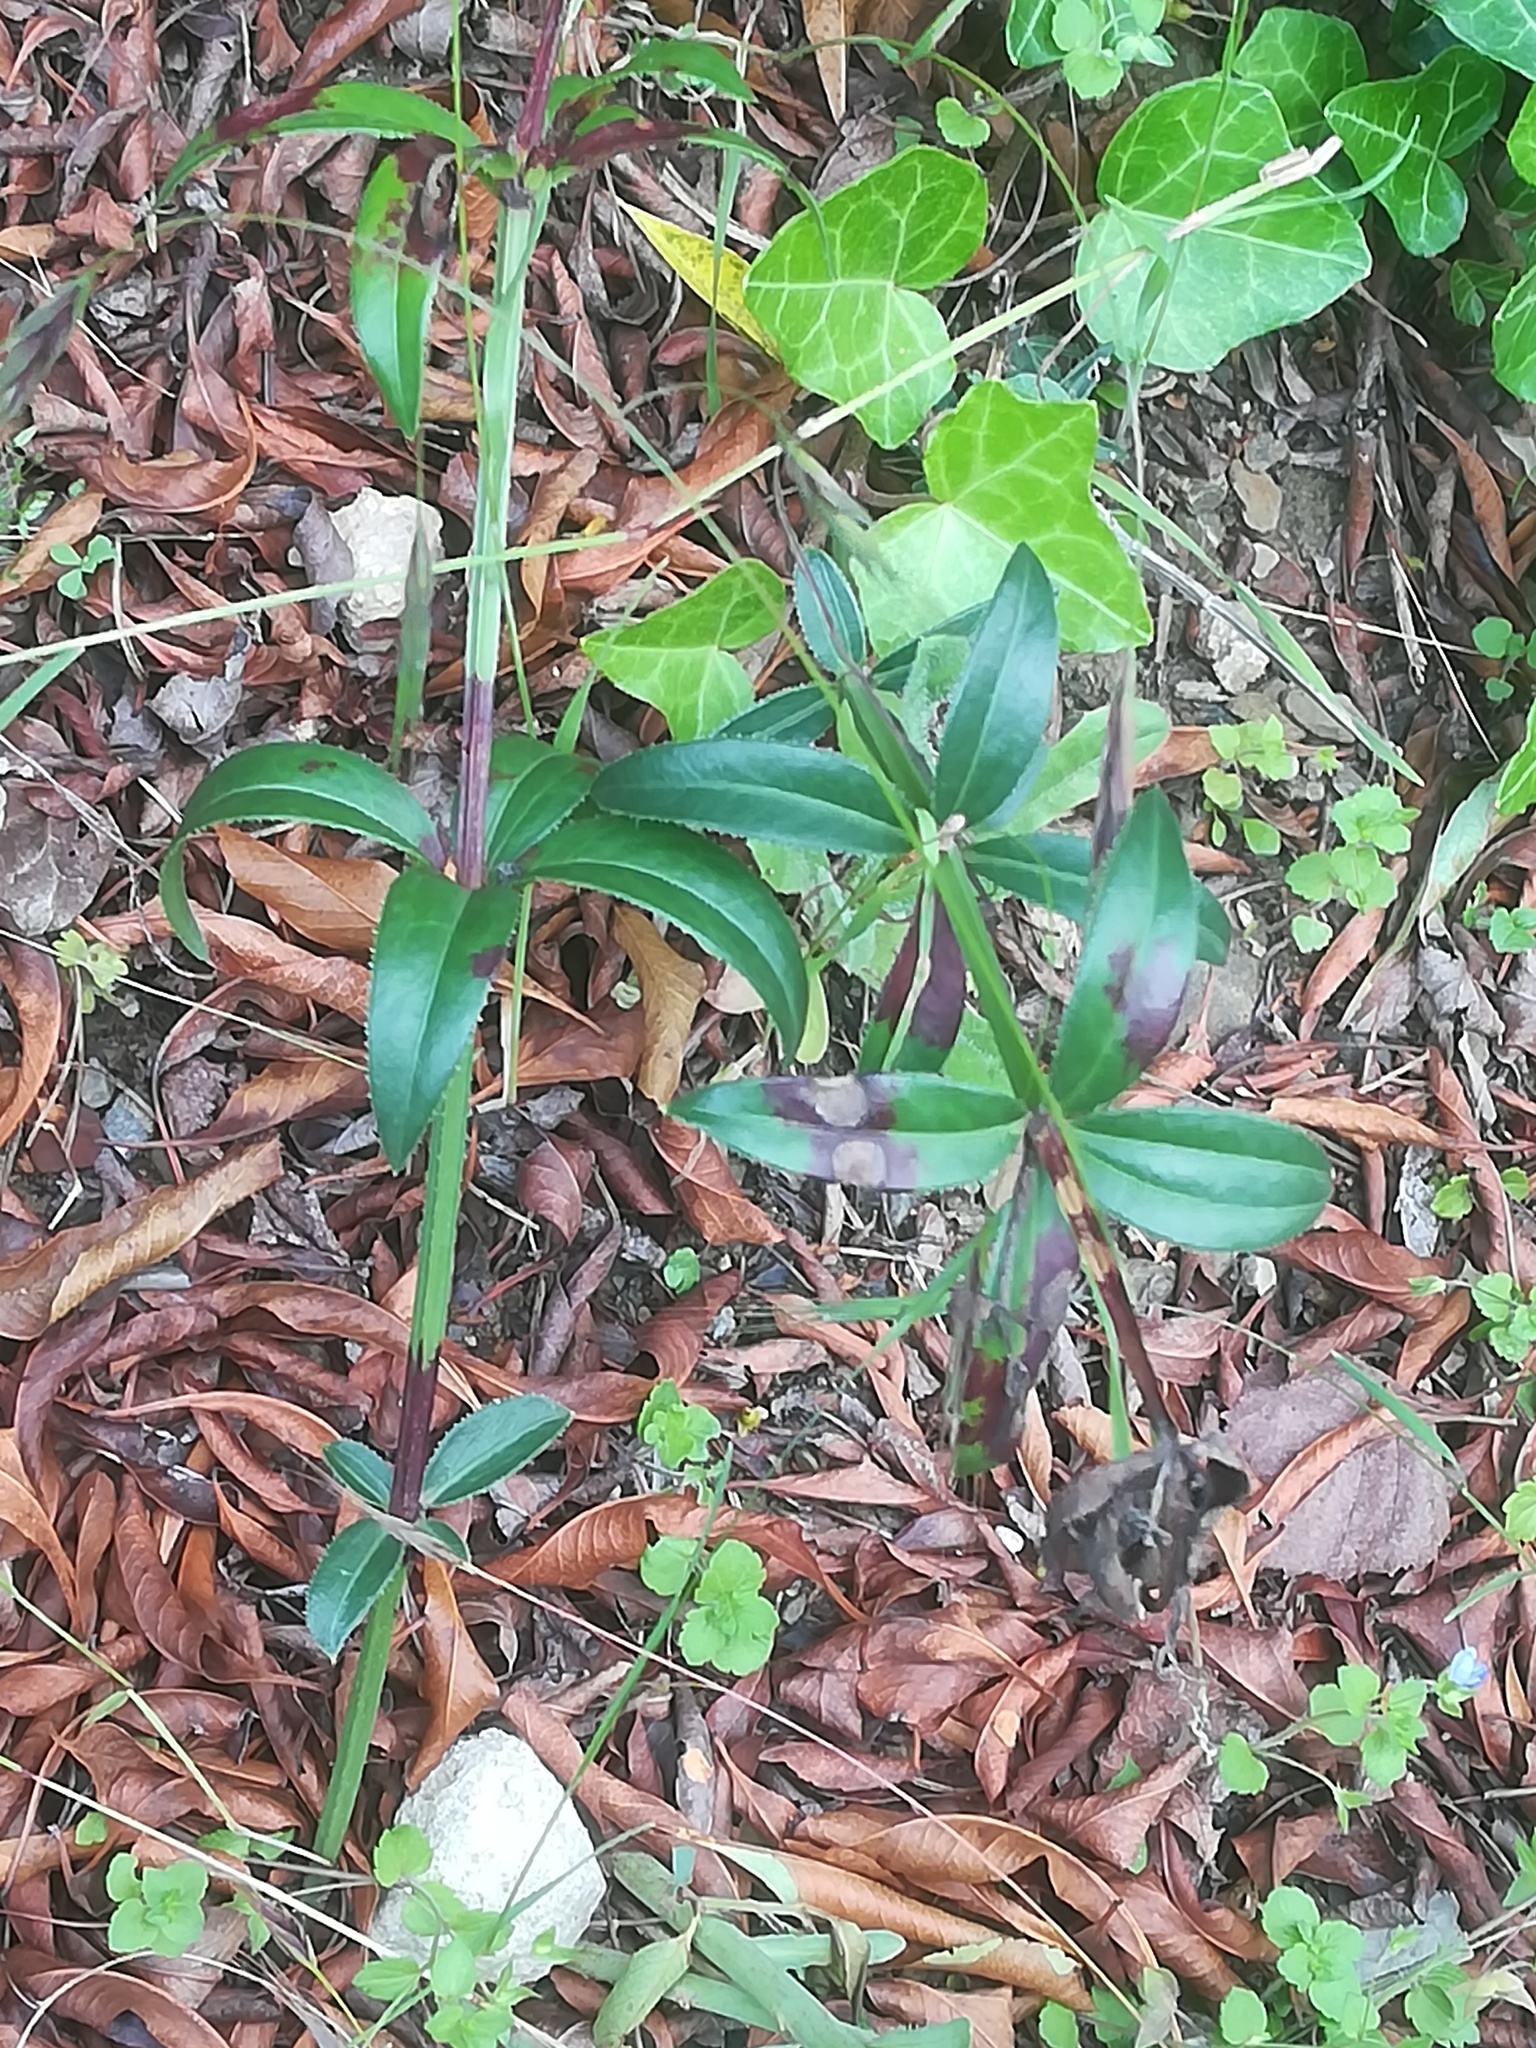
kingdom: Plantae
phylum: Tracheophyta
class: Magnoliopsida
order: Gentianales
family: Rubiaceae
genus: Rubia
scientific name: Rubia peregrina
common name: Wild madder
